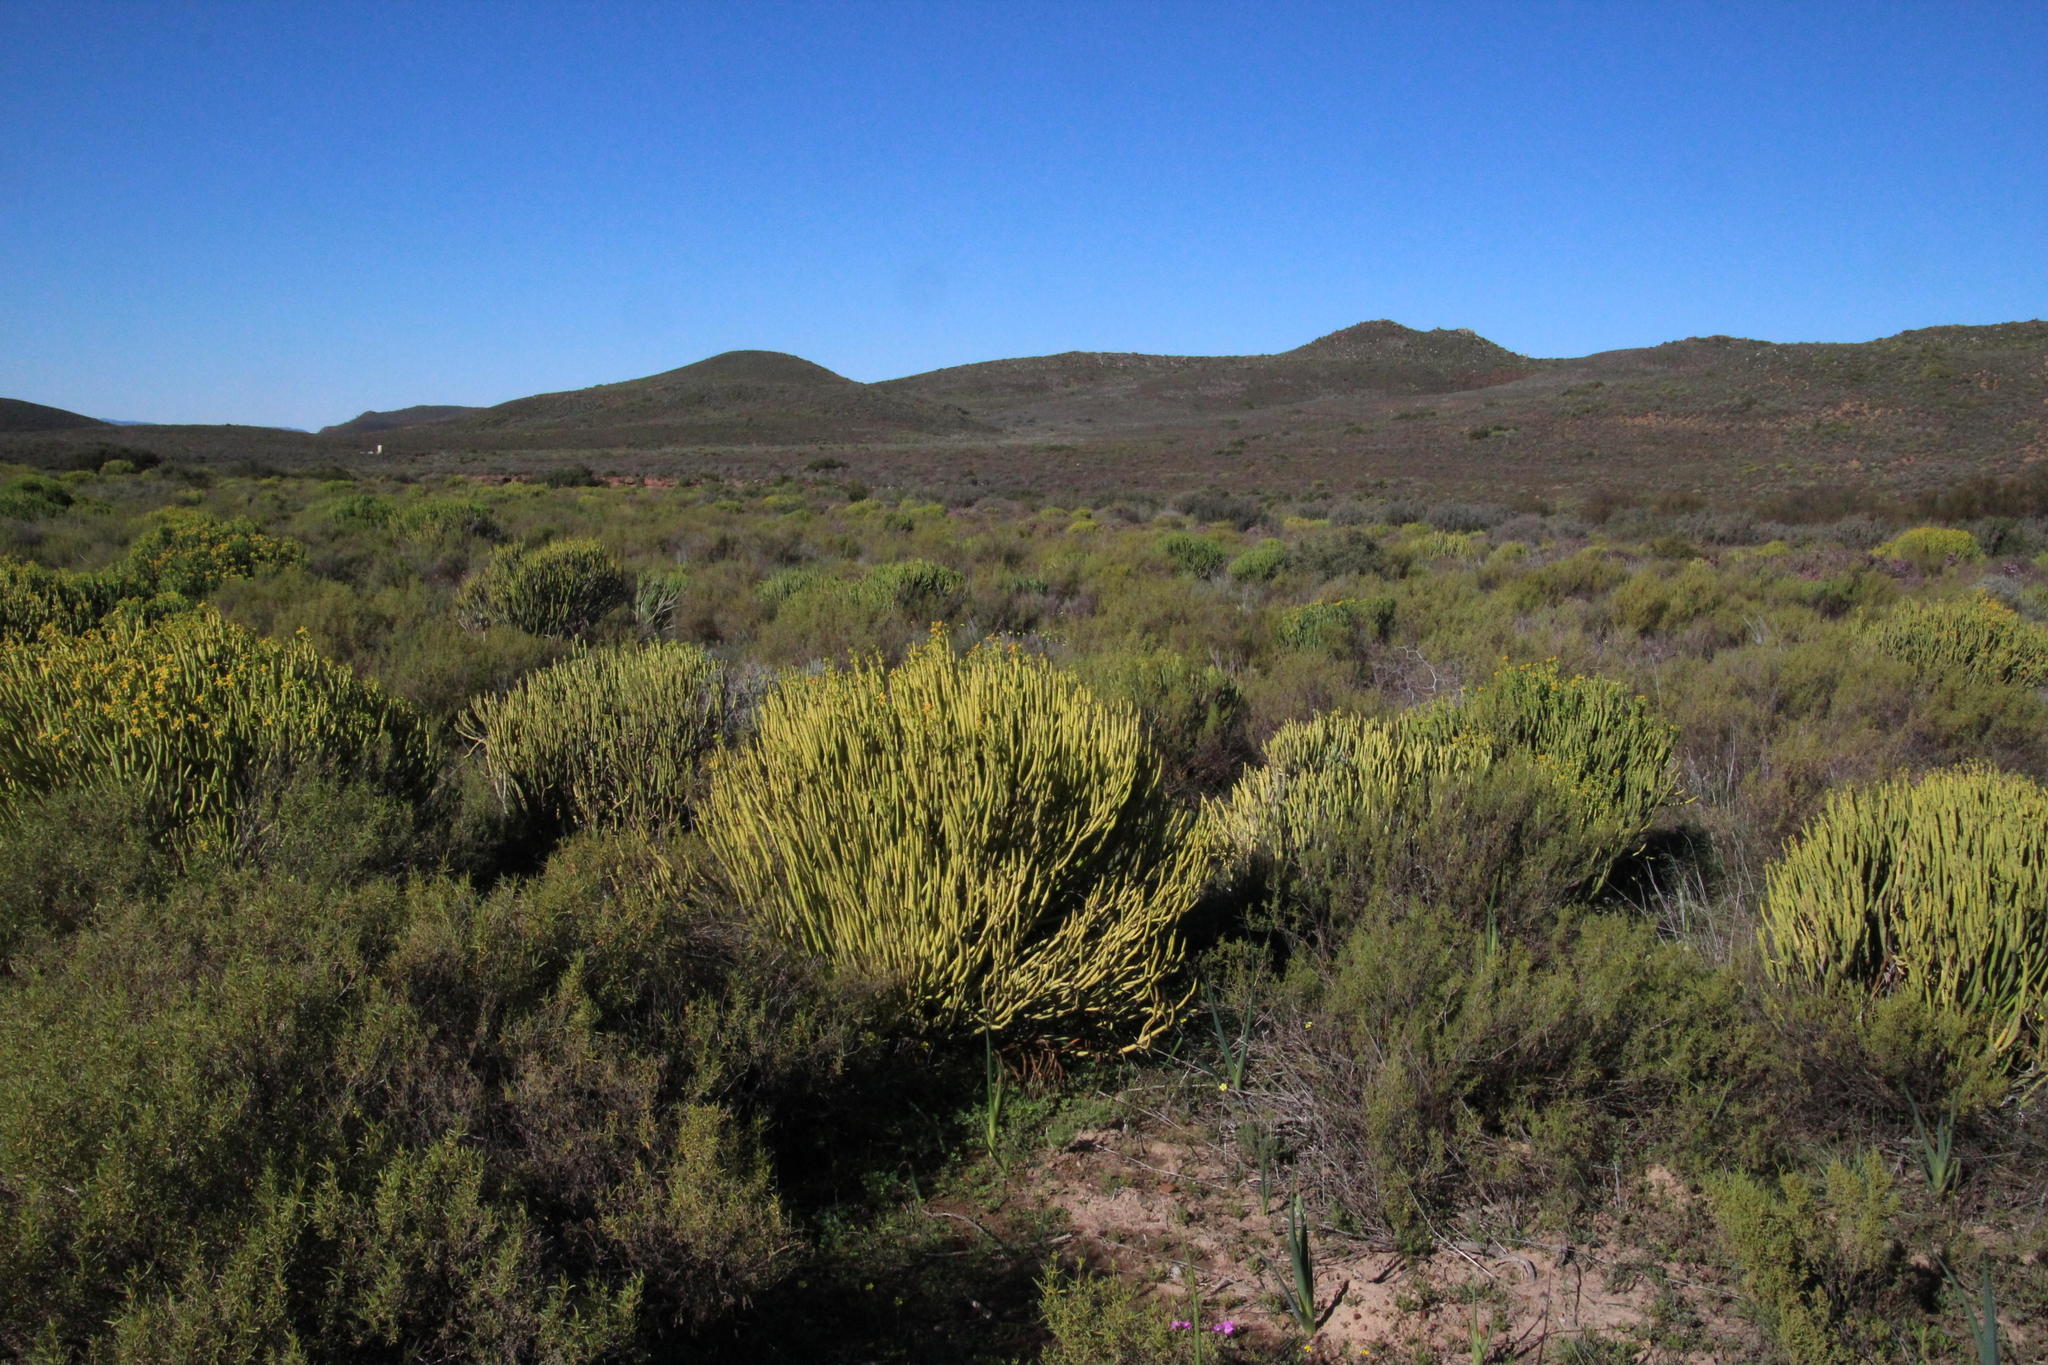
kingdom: Plantae
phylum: Tracheophyta
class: Magnoliopsida
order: Malpighiales
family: Euphorbiaceae
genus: Euphorbia
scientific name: Euphorbia mauritanica
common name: Jackal's-food
